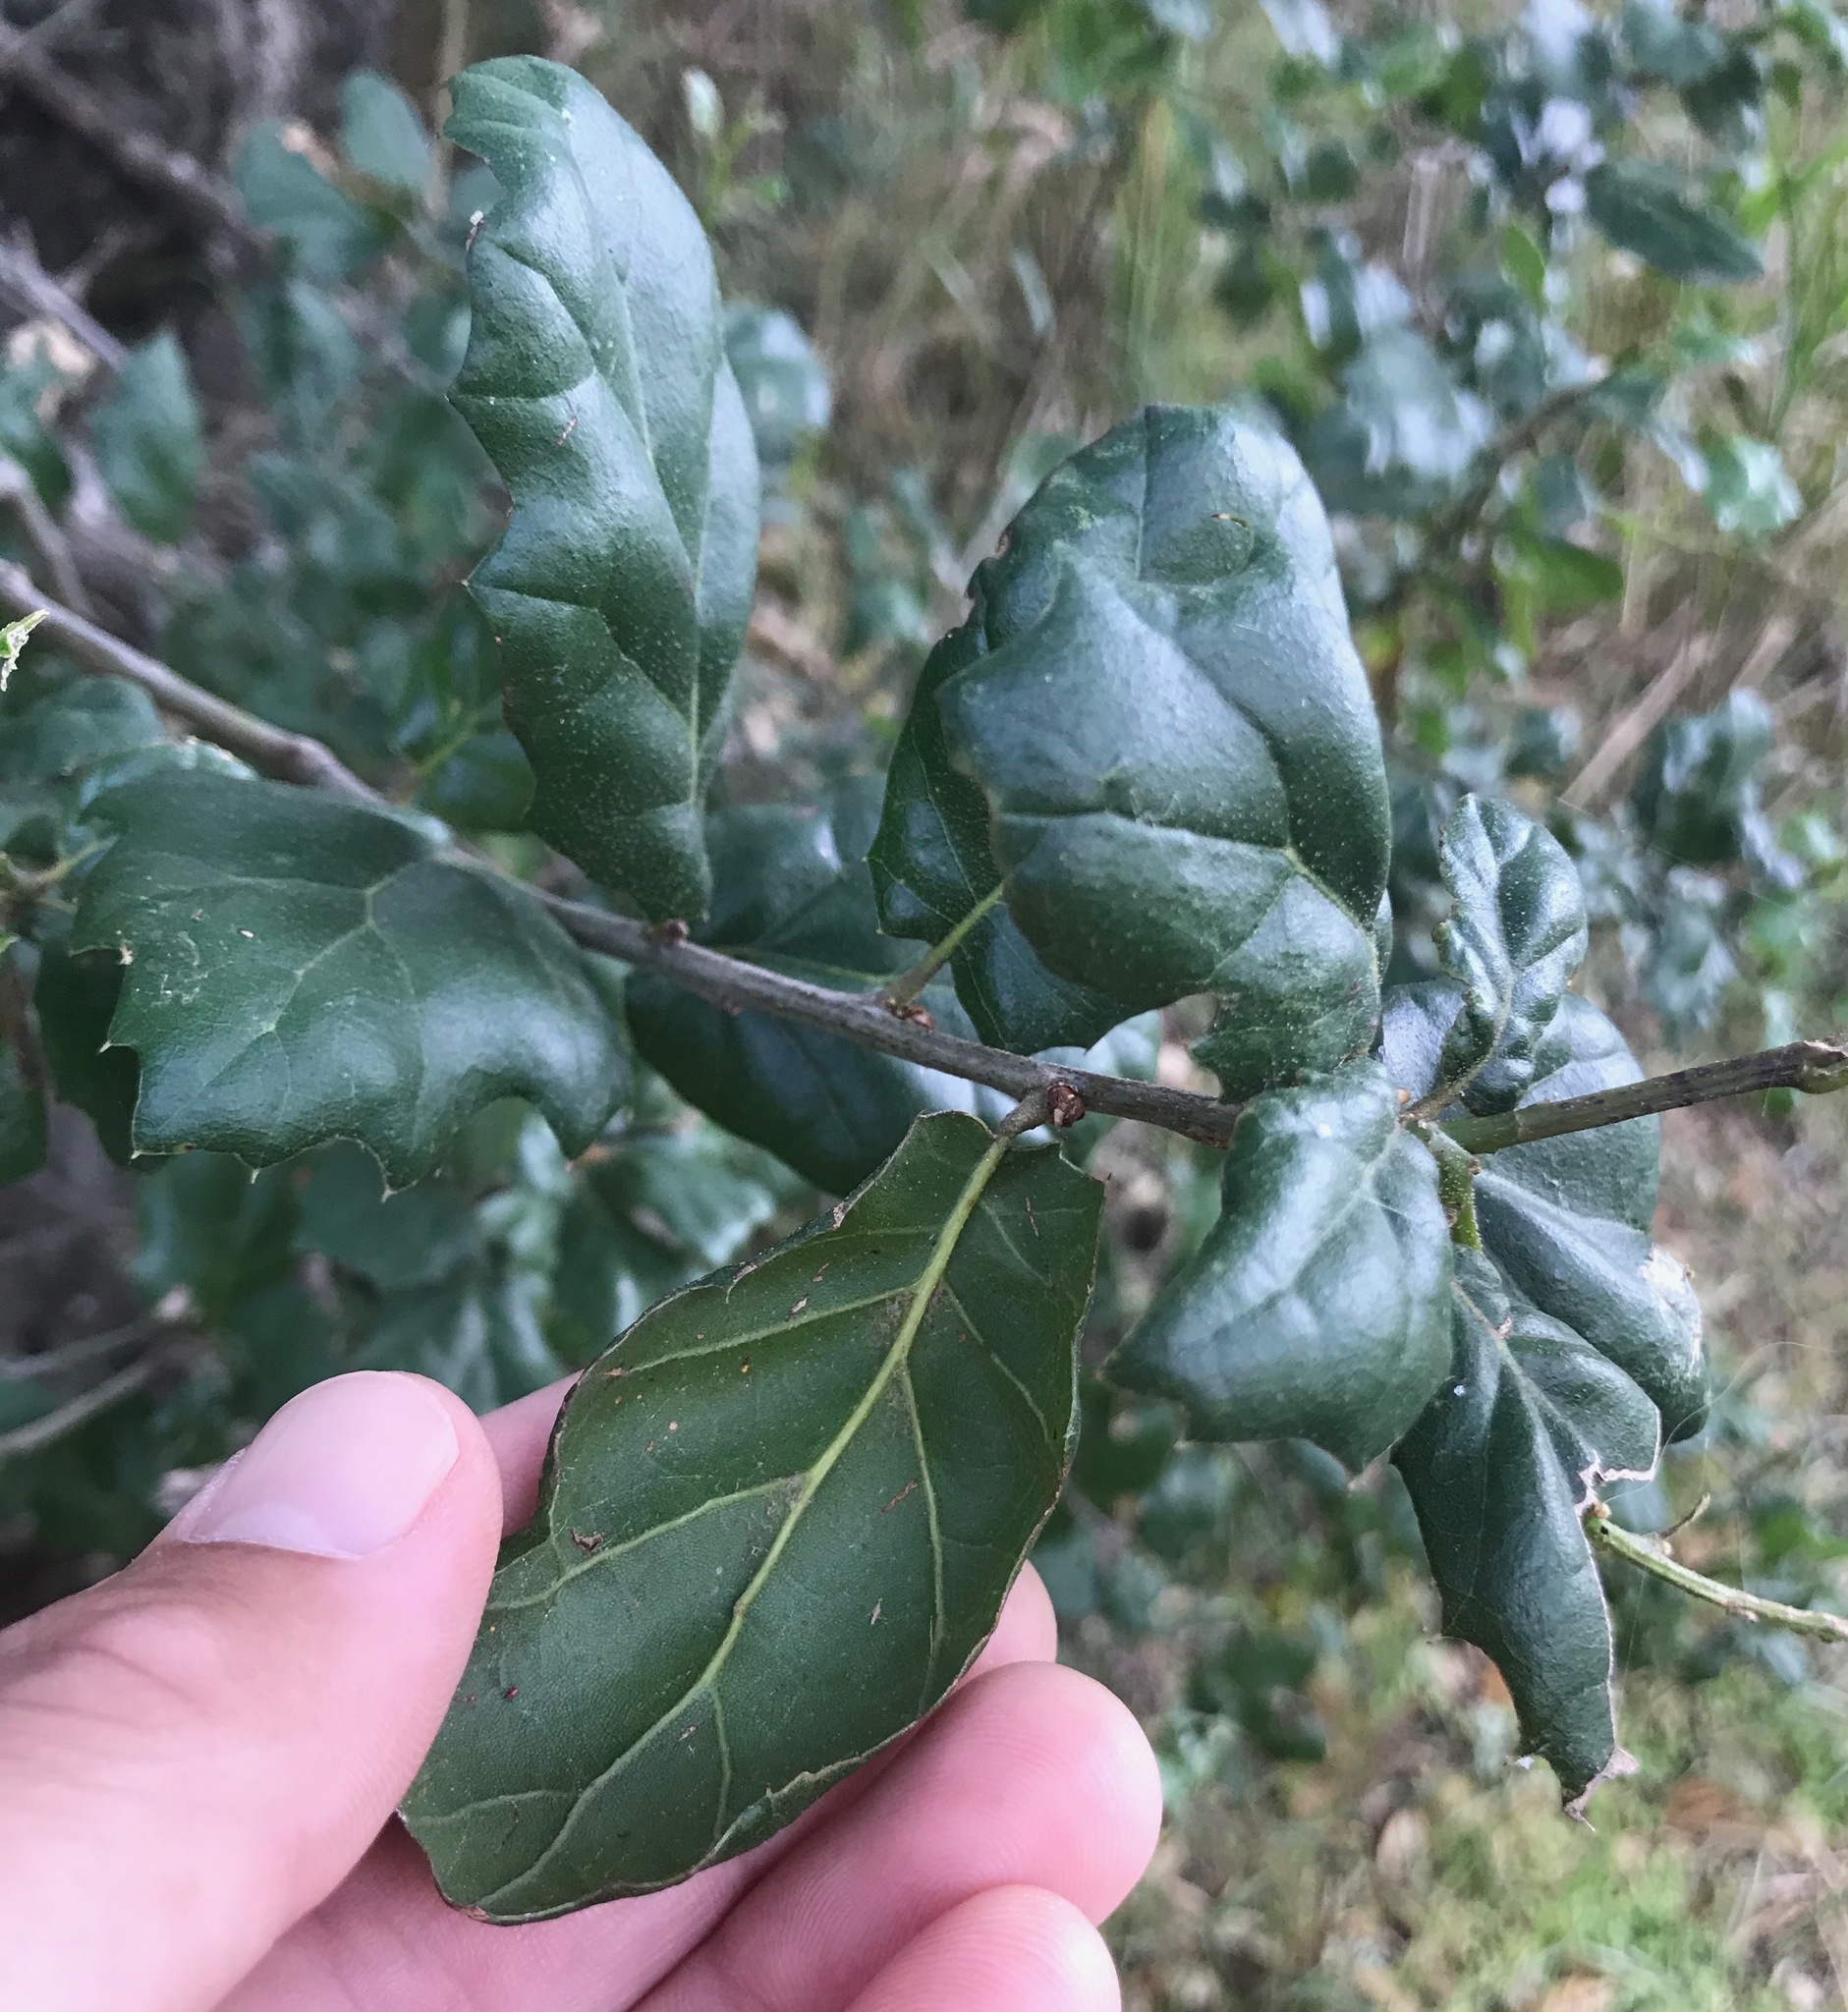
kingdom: Plantae
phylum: Tracheophyta
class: Magnoliopsida
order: Fagales
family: Fagaceae
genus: Quercus
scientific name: Quercus agrifolia
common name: California live oak
